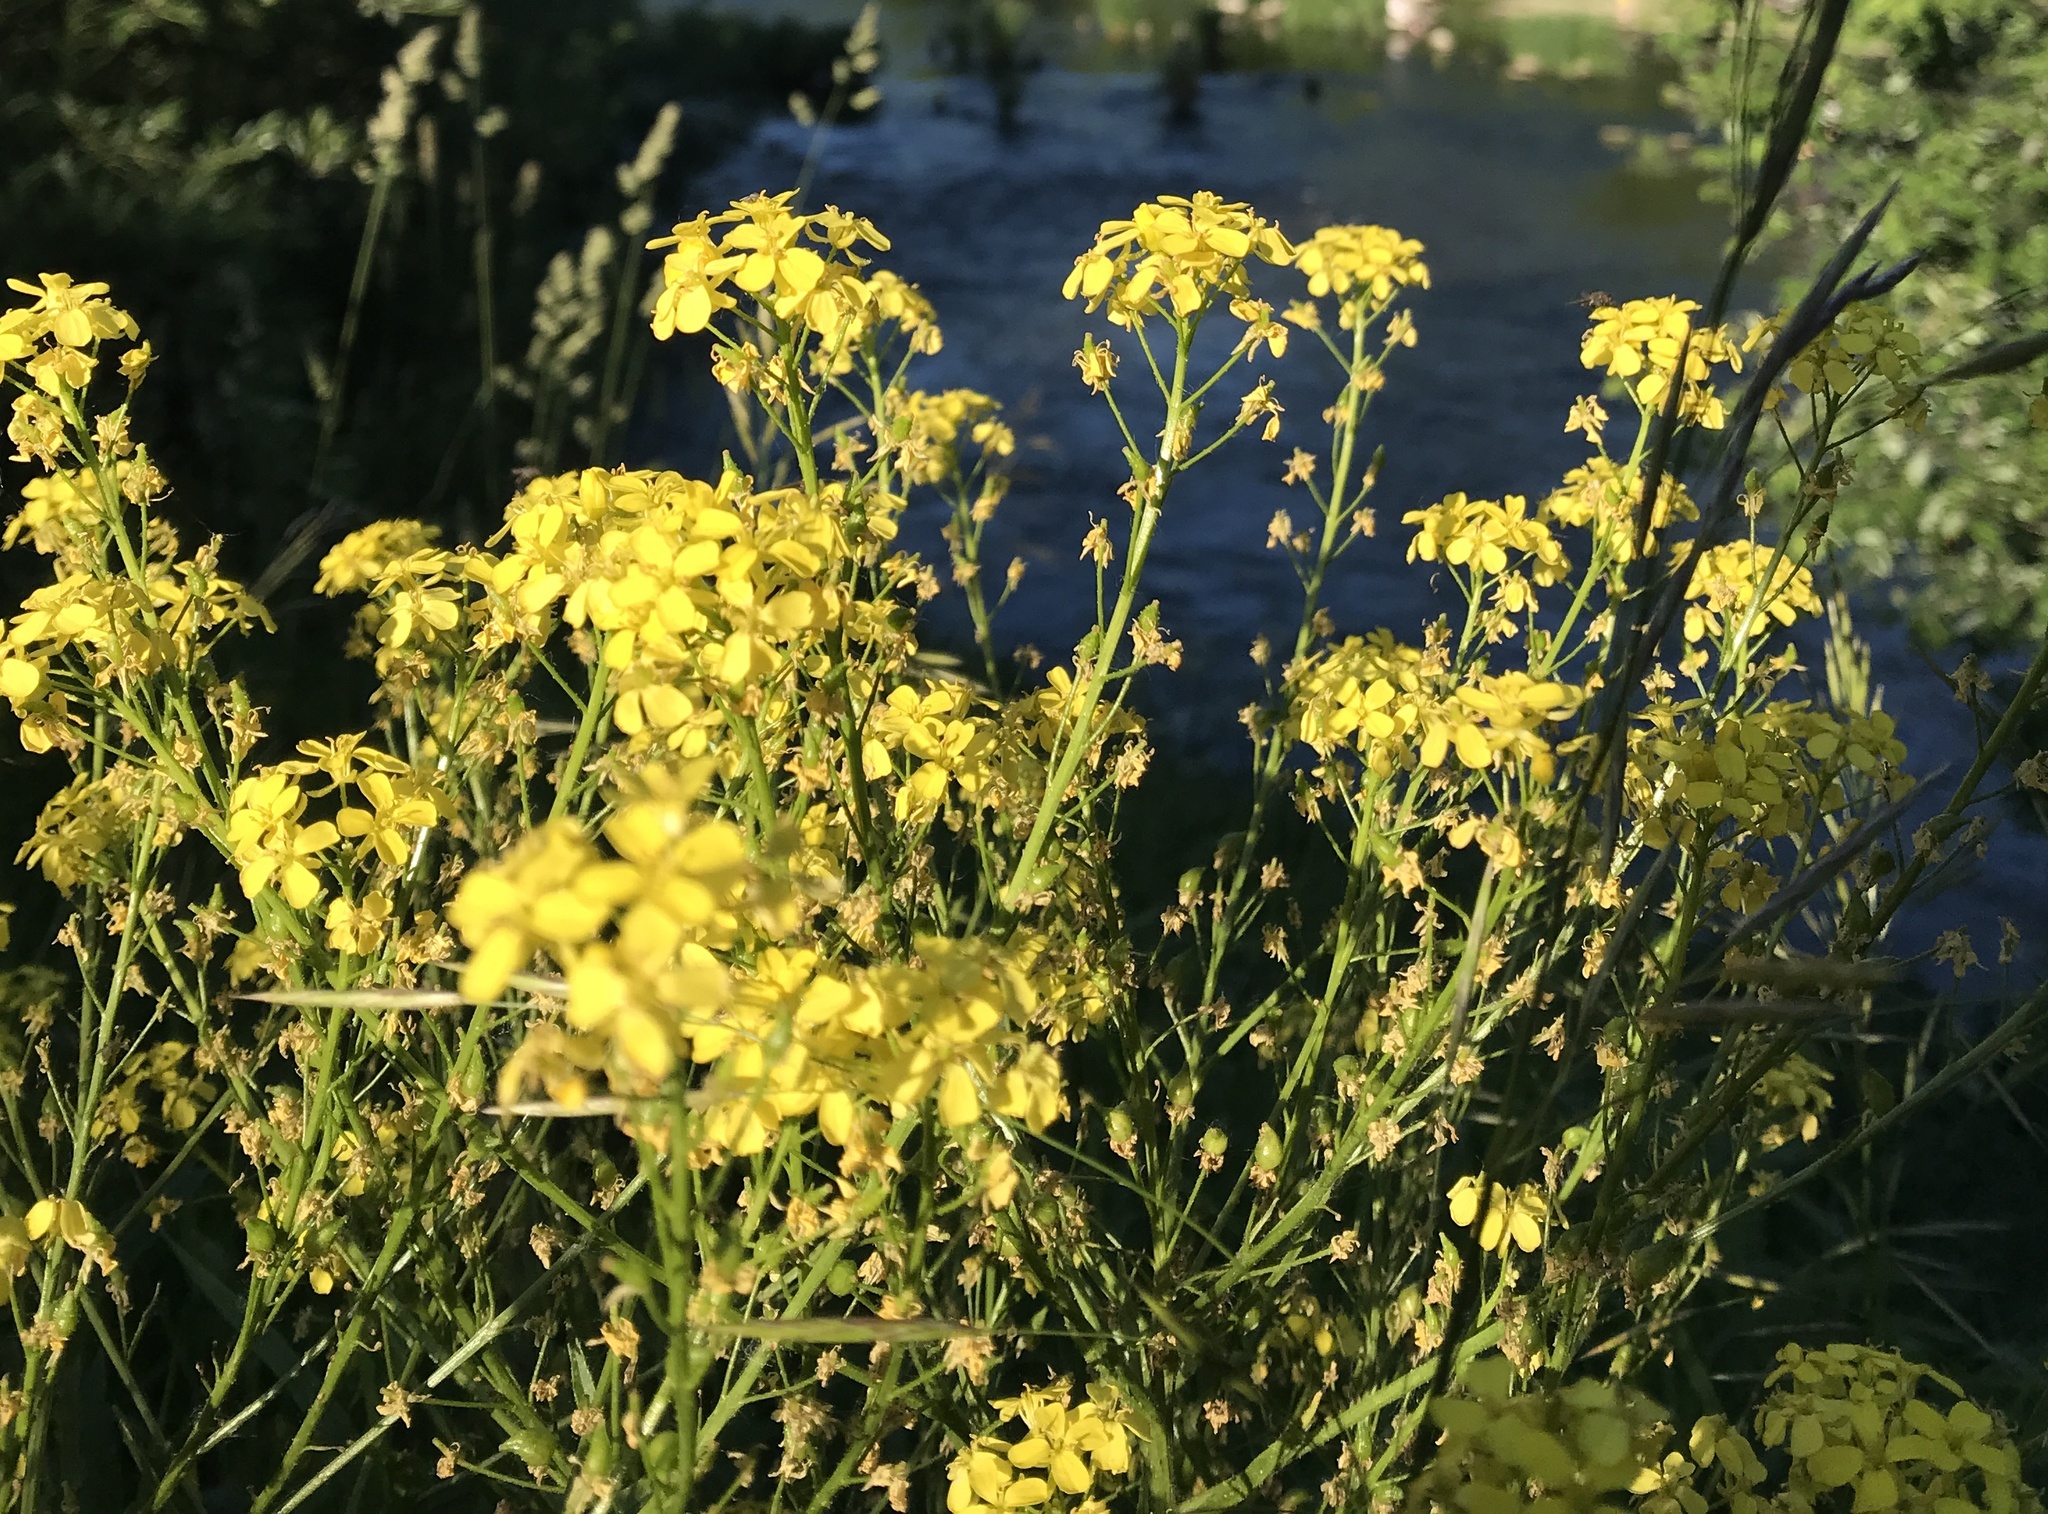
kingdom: Plantae
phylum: Tracheophyta
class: Magnoliopsida
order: Brassicales
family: Brassicaceae
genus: Bunias
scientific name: Bunias orientalis
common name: Warty-cabbage
